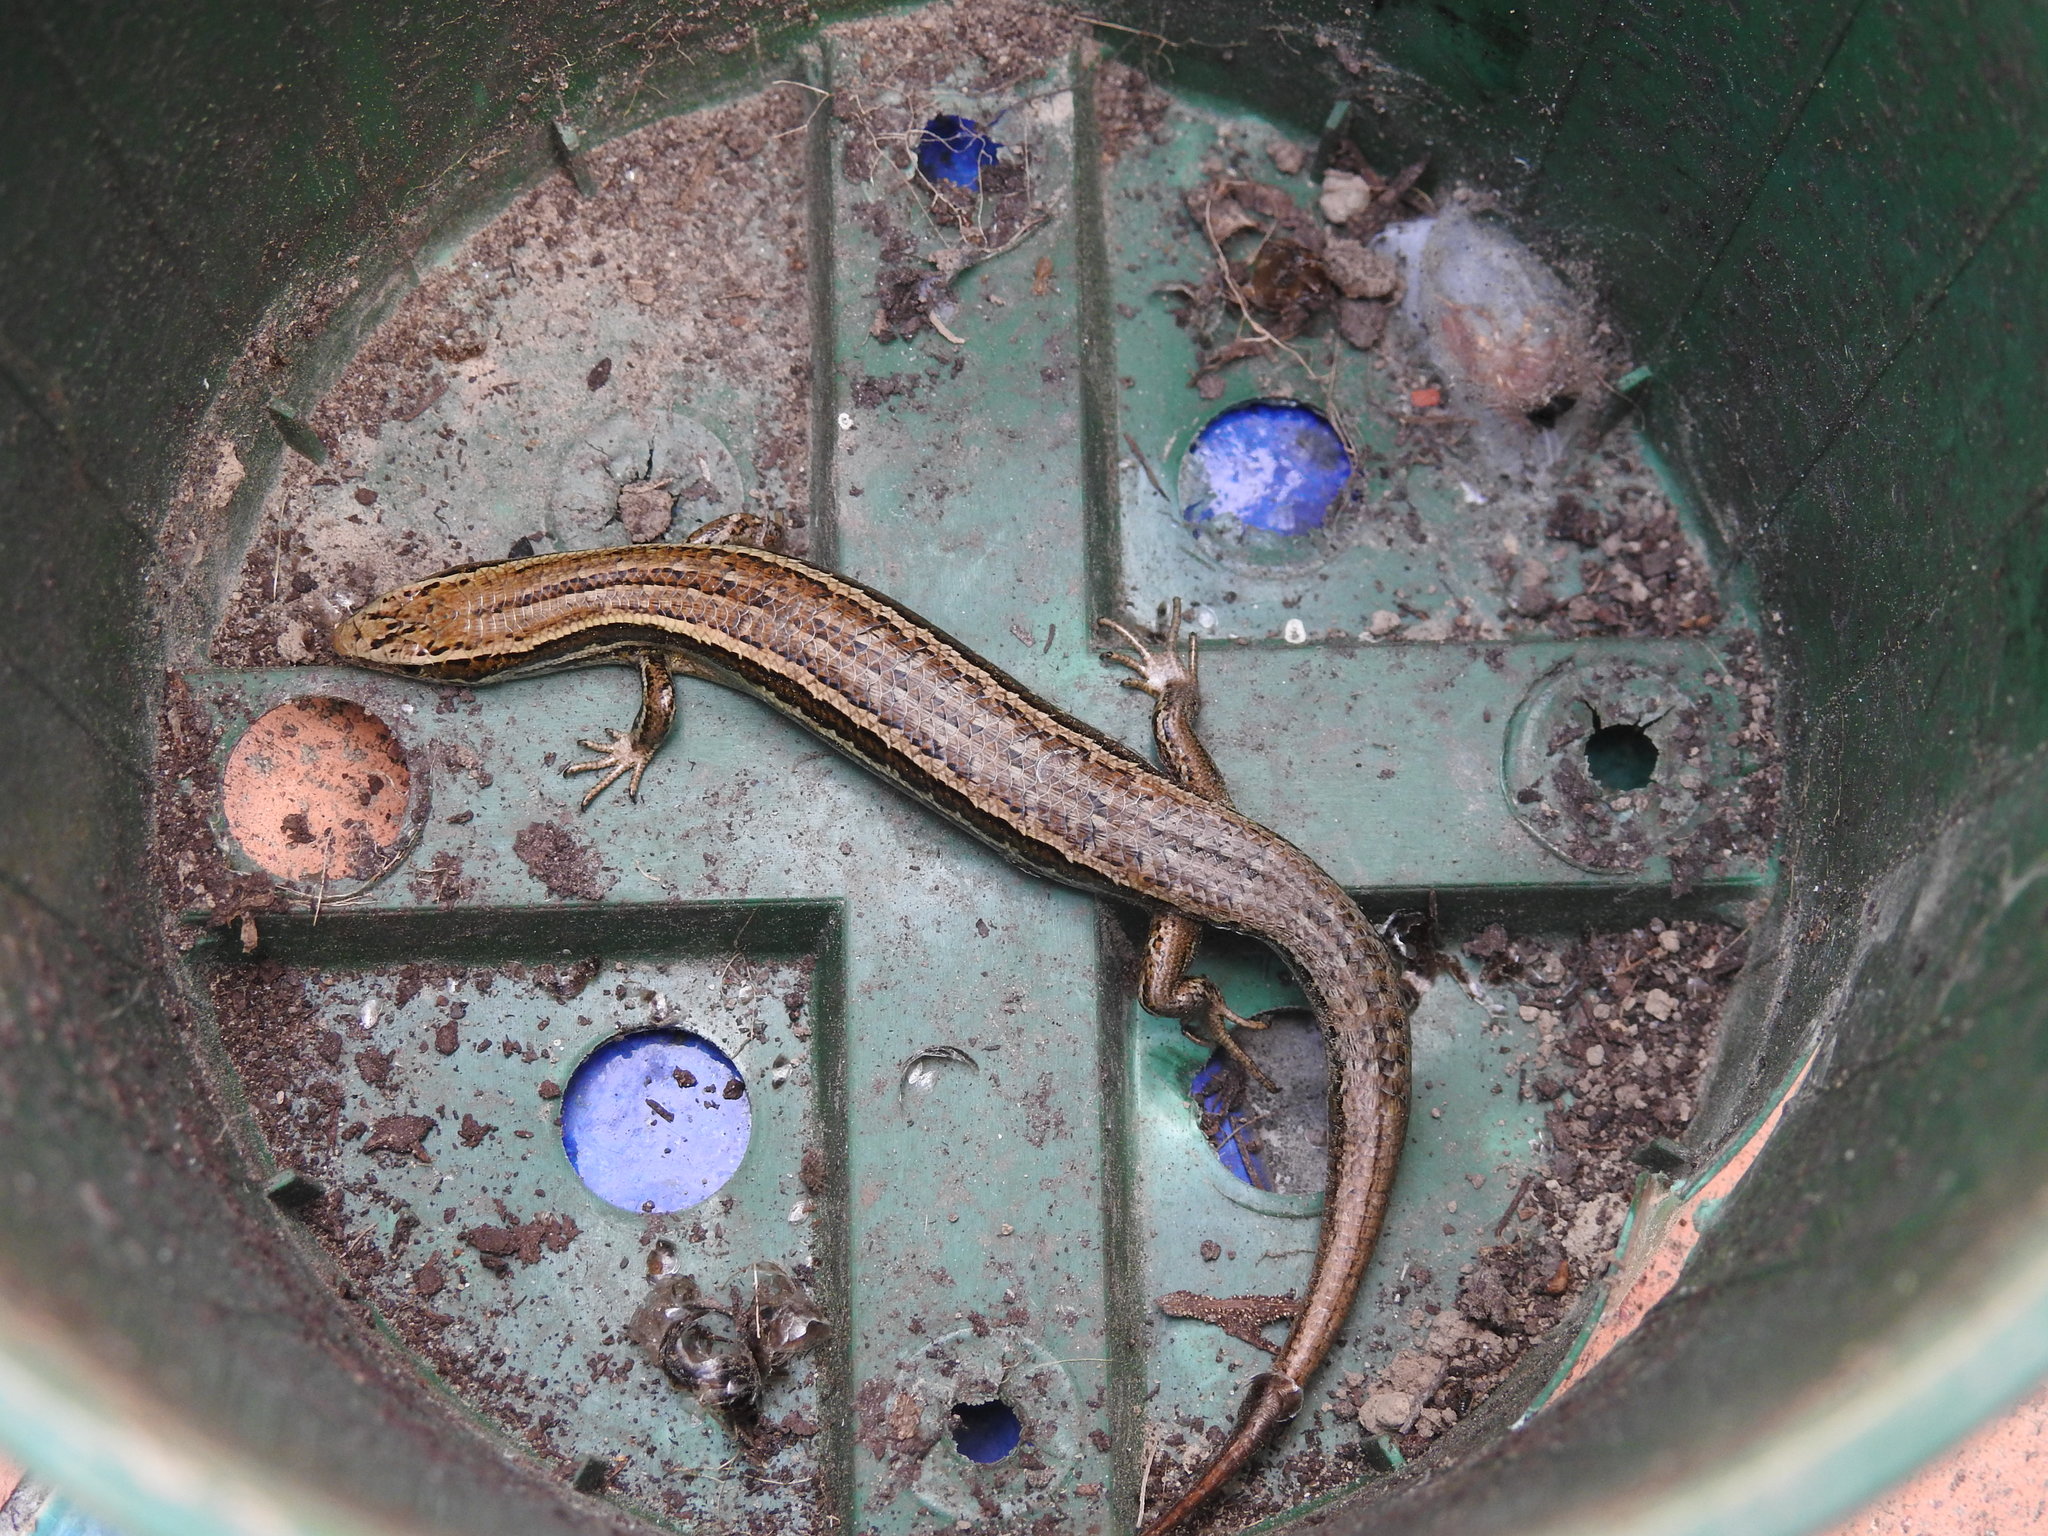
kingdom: Animalia
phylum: Chordata
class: Squamata
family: Scincidae
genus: Oligosoma
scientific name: Oligosoma maccanni
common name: Mccann’s skink
